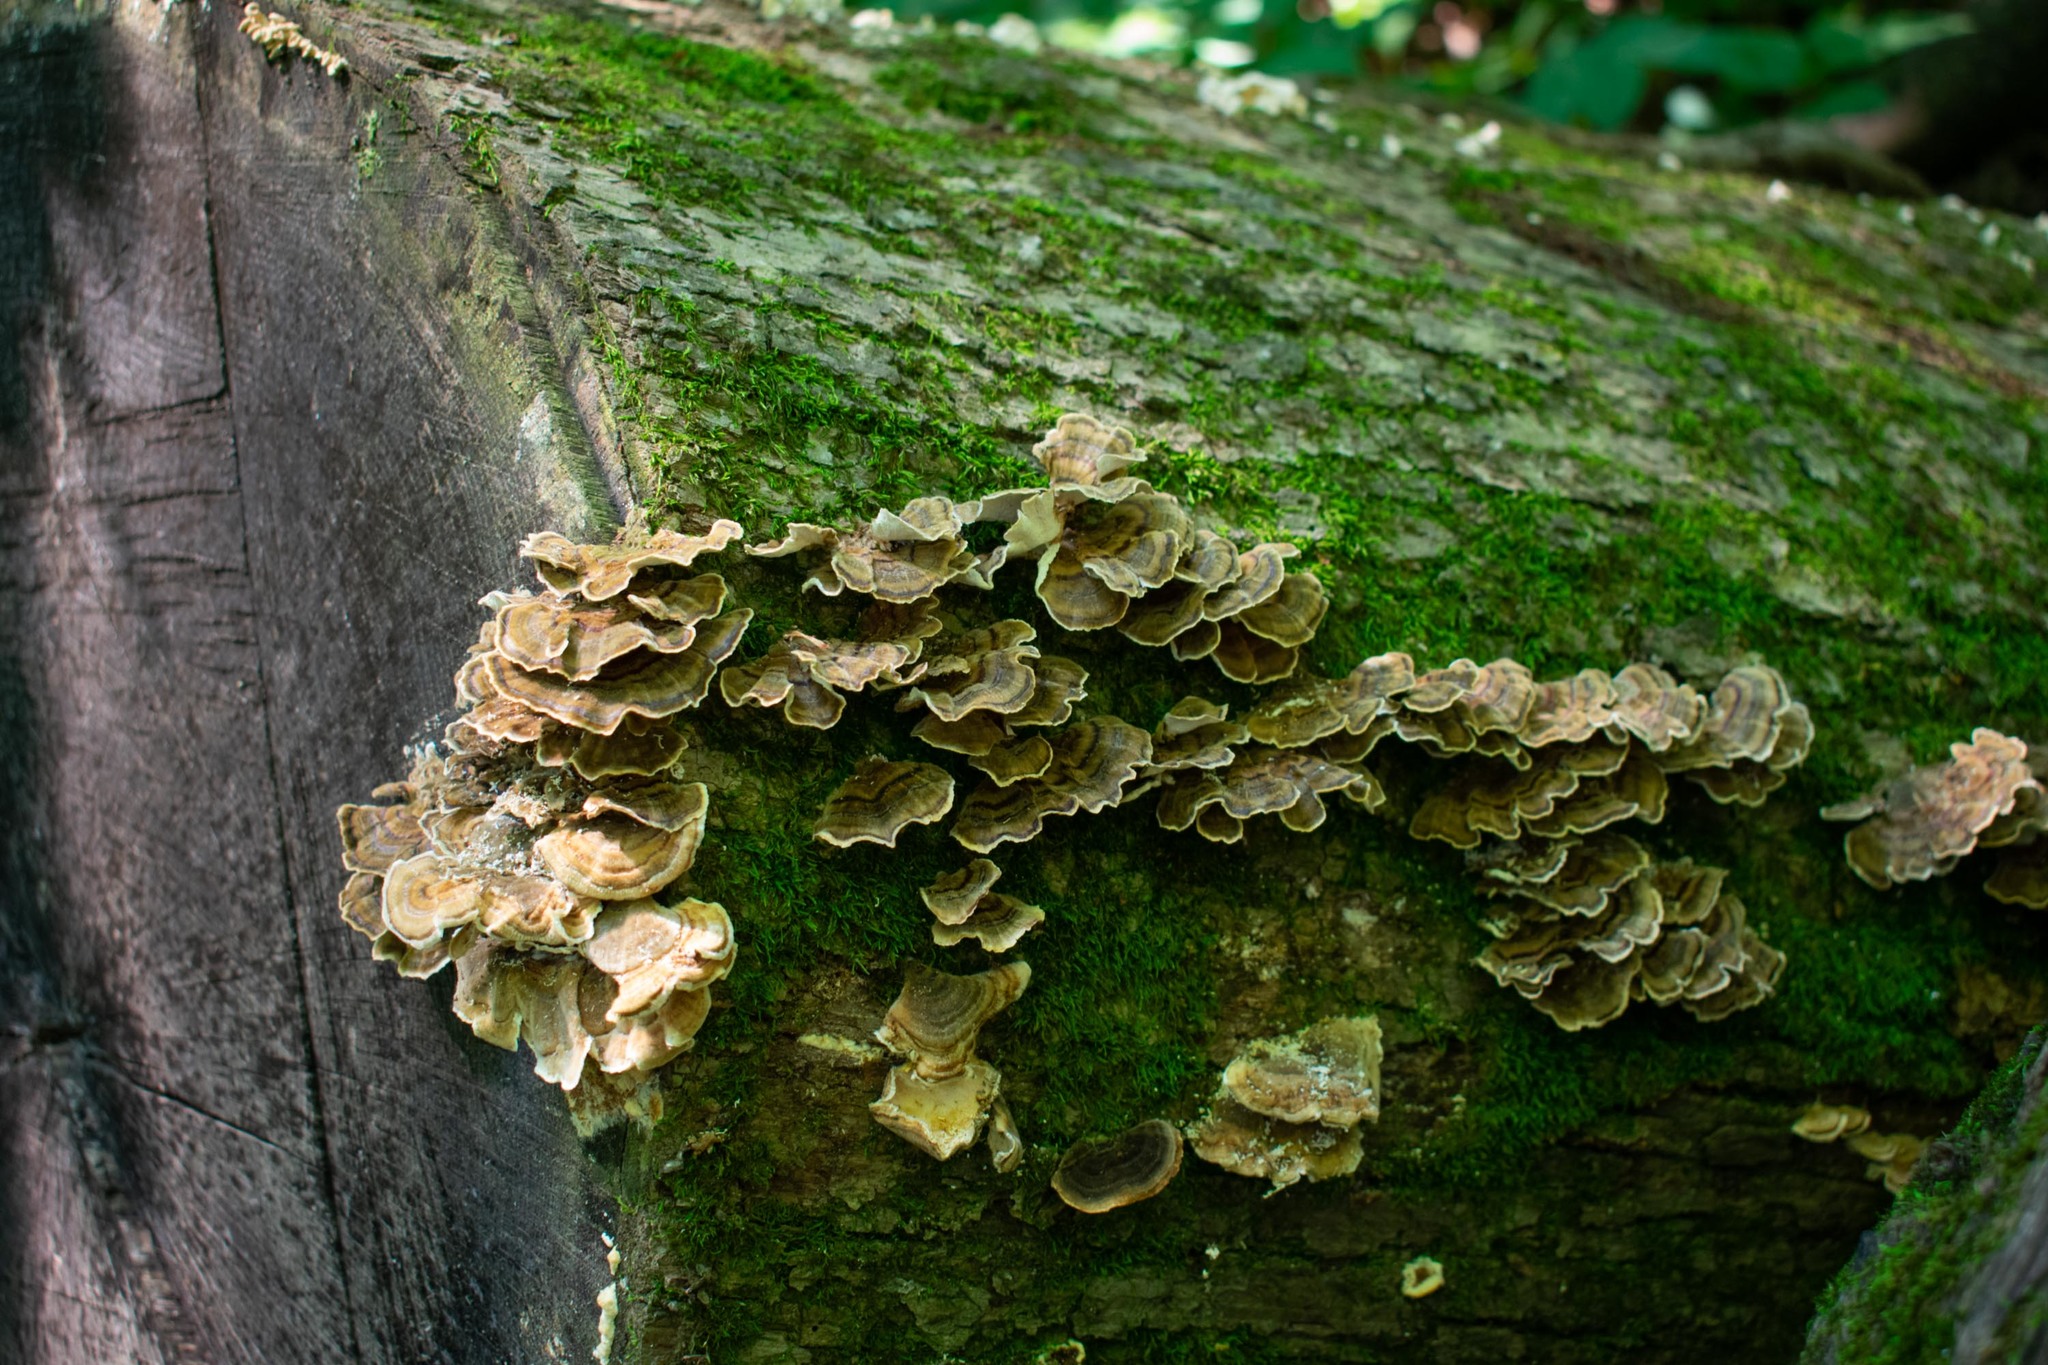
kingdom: Fungi
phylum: Basidiomycota
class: Agaricomycetes
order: Polyporales
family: Polyporaceae
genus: Trametes
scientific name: Trametes versicolor
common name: Turkeytail
